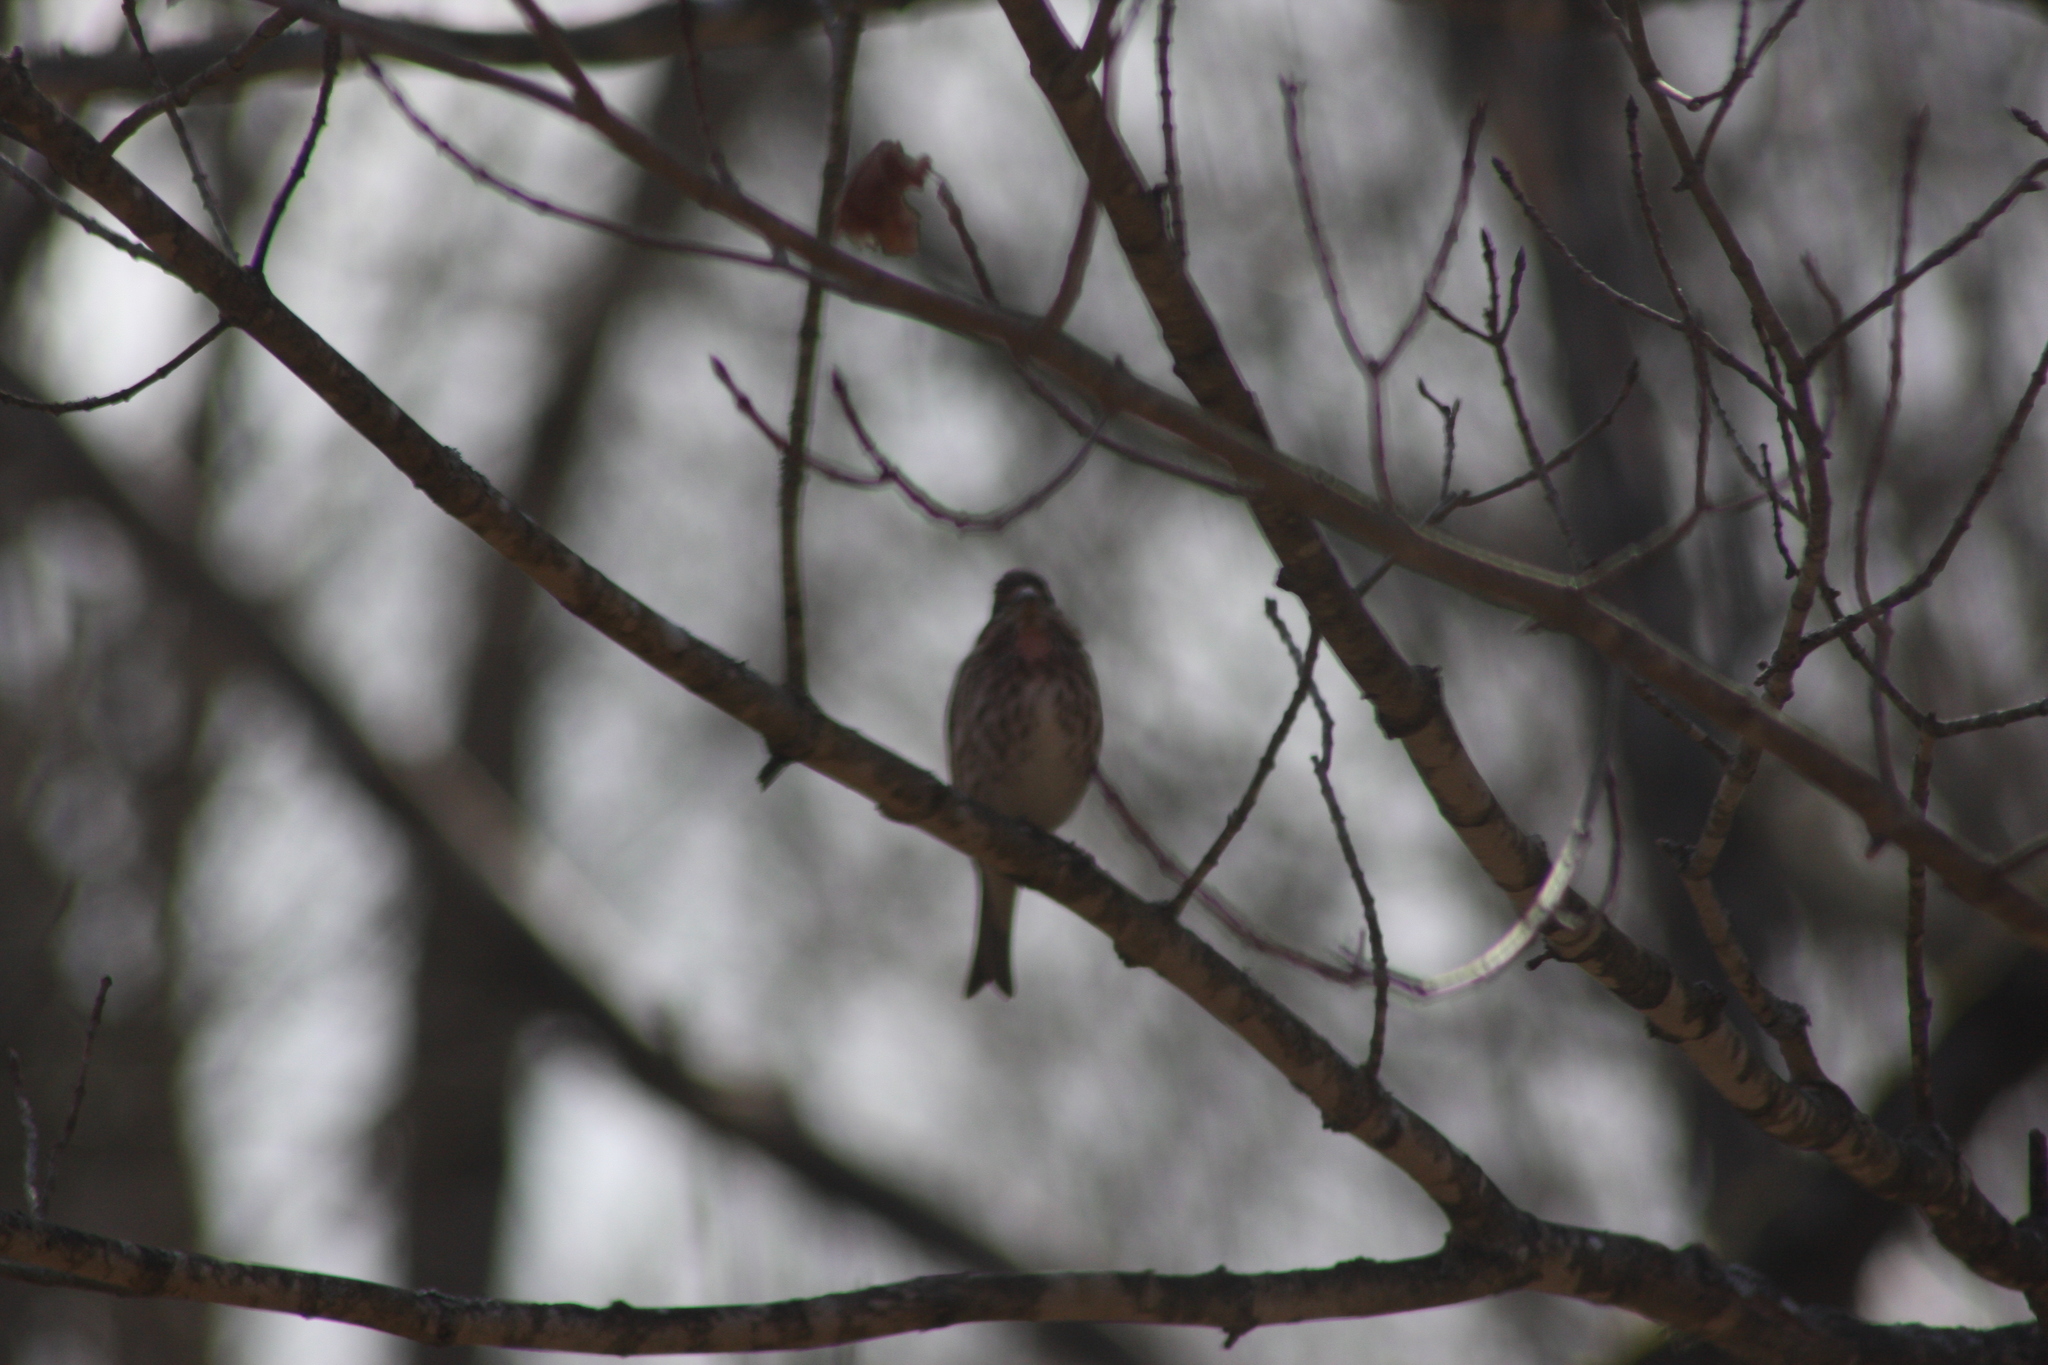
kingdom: Animalia
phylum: Chordata
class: Aves
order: Passeriformes
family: Fringillidae
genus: Haemorhous
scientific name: Haemorhous purpureus
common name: Purple finch
